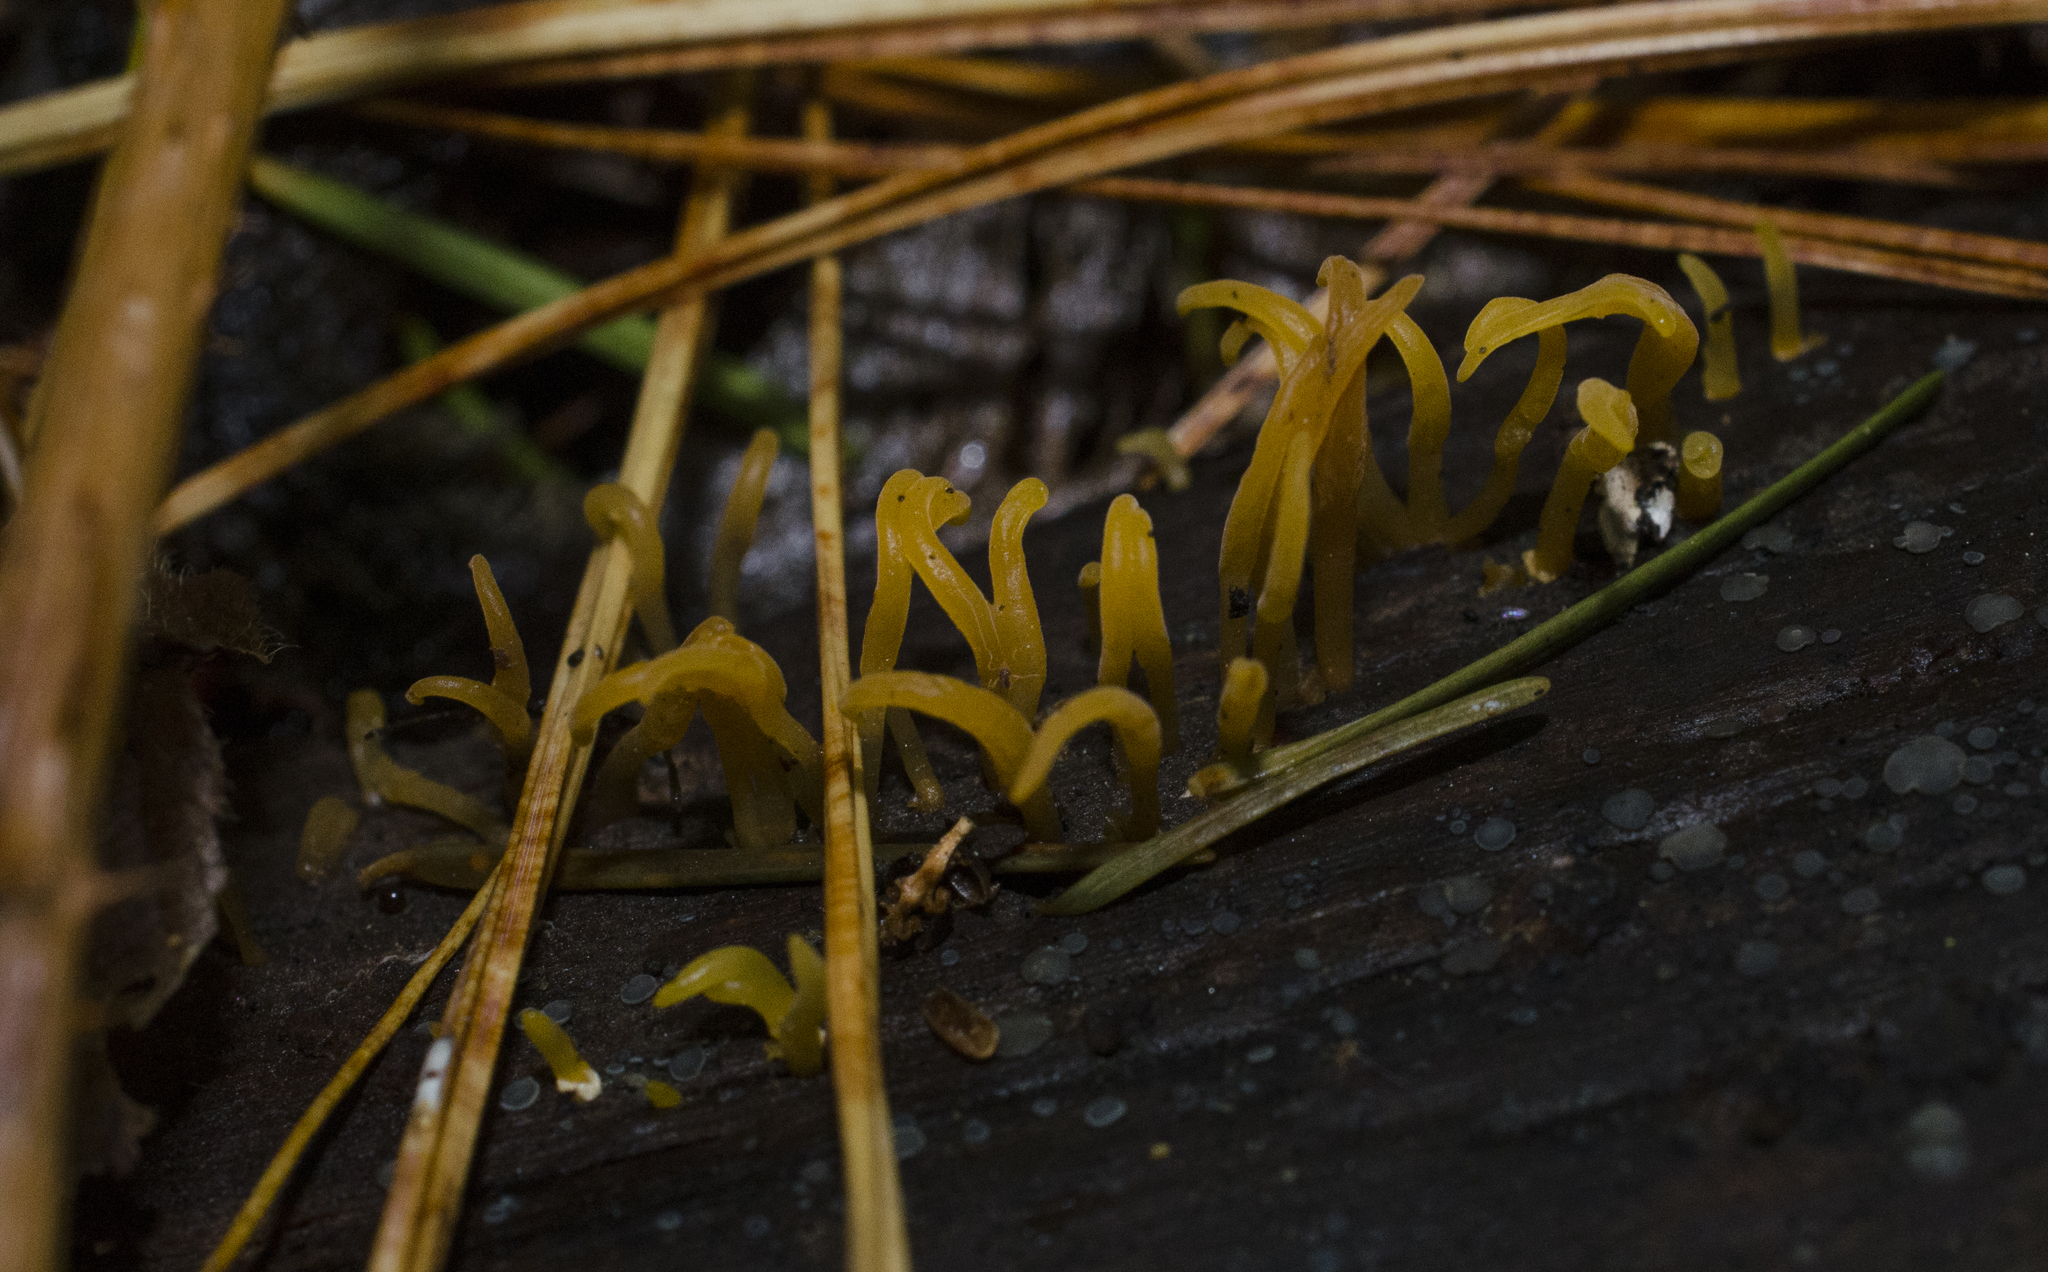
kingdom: Fungi
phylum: Basidiomycota
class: Dacrymycetes
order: Dacrymycetales
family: Dacrymycetaceae
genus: Calocera
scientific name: Calocera cornea
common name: Small stagshorn
